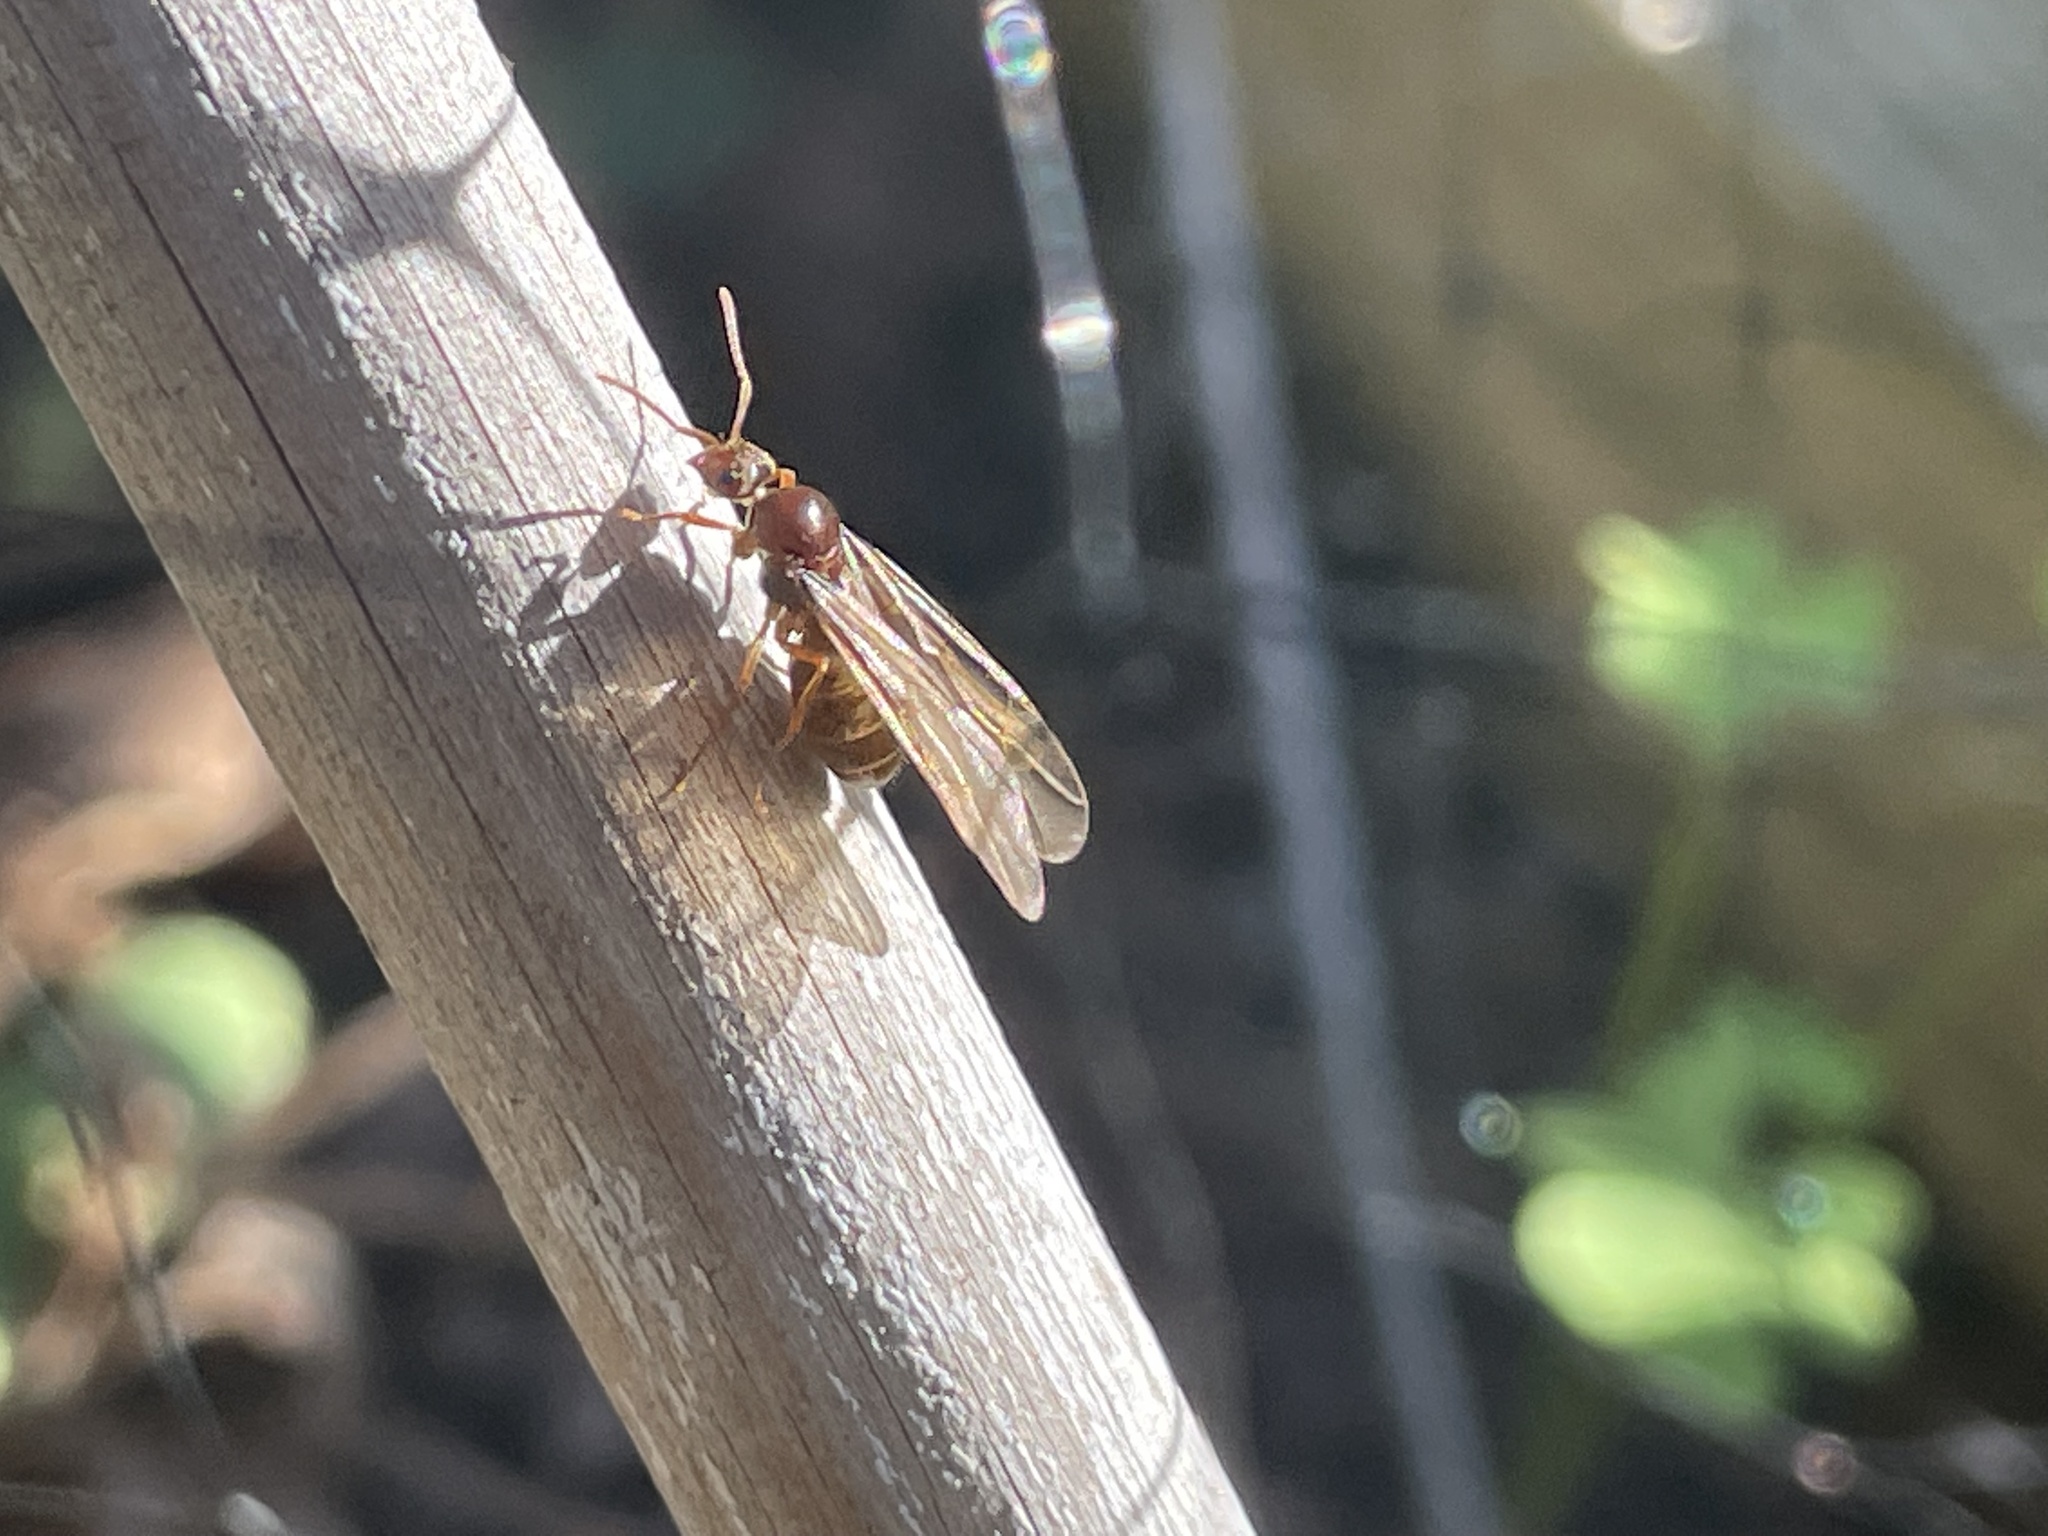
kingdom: Animalia
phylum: Arthropoda
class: Insecta
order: Hymenoptera
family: Formicidae
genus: Prenolepis
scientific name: Prenolepis imparis
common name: Small honey ant
